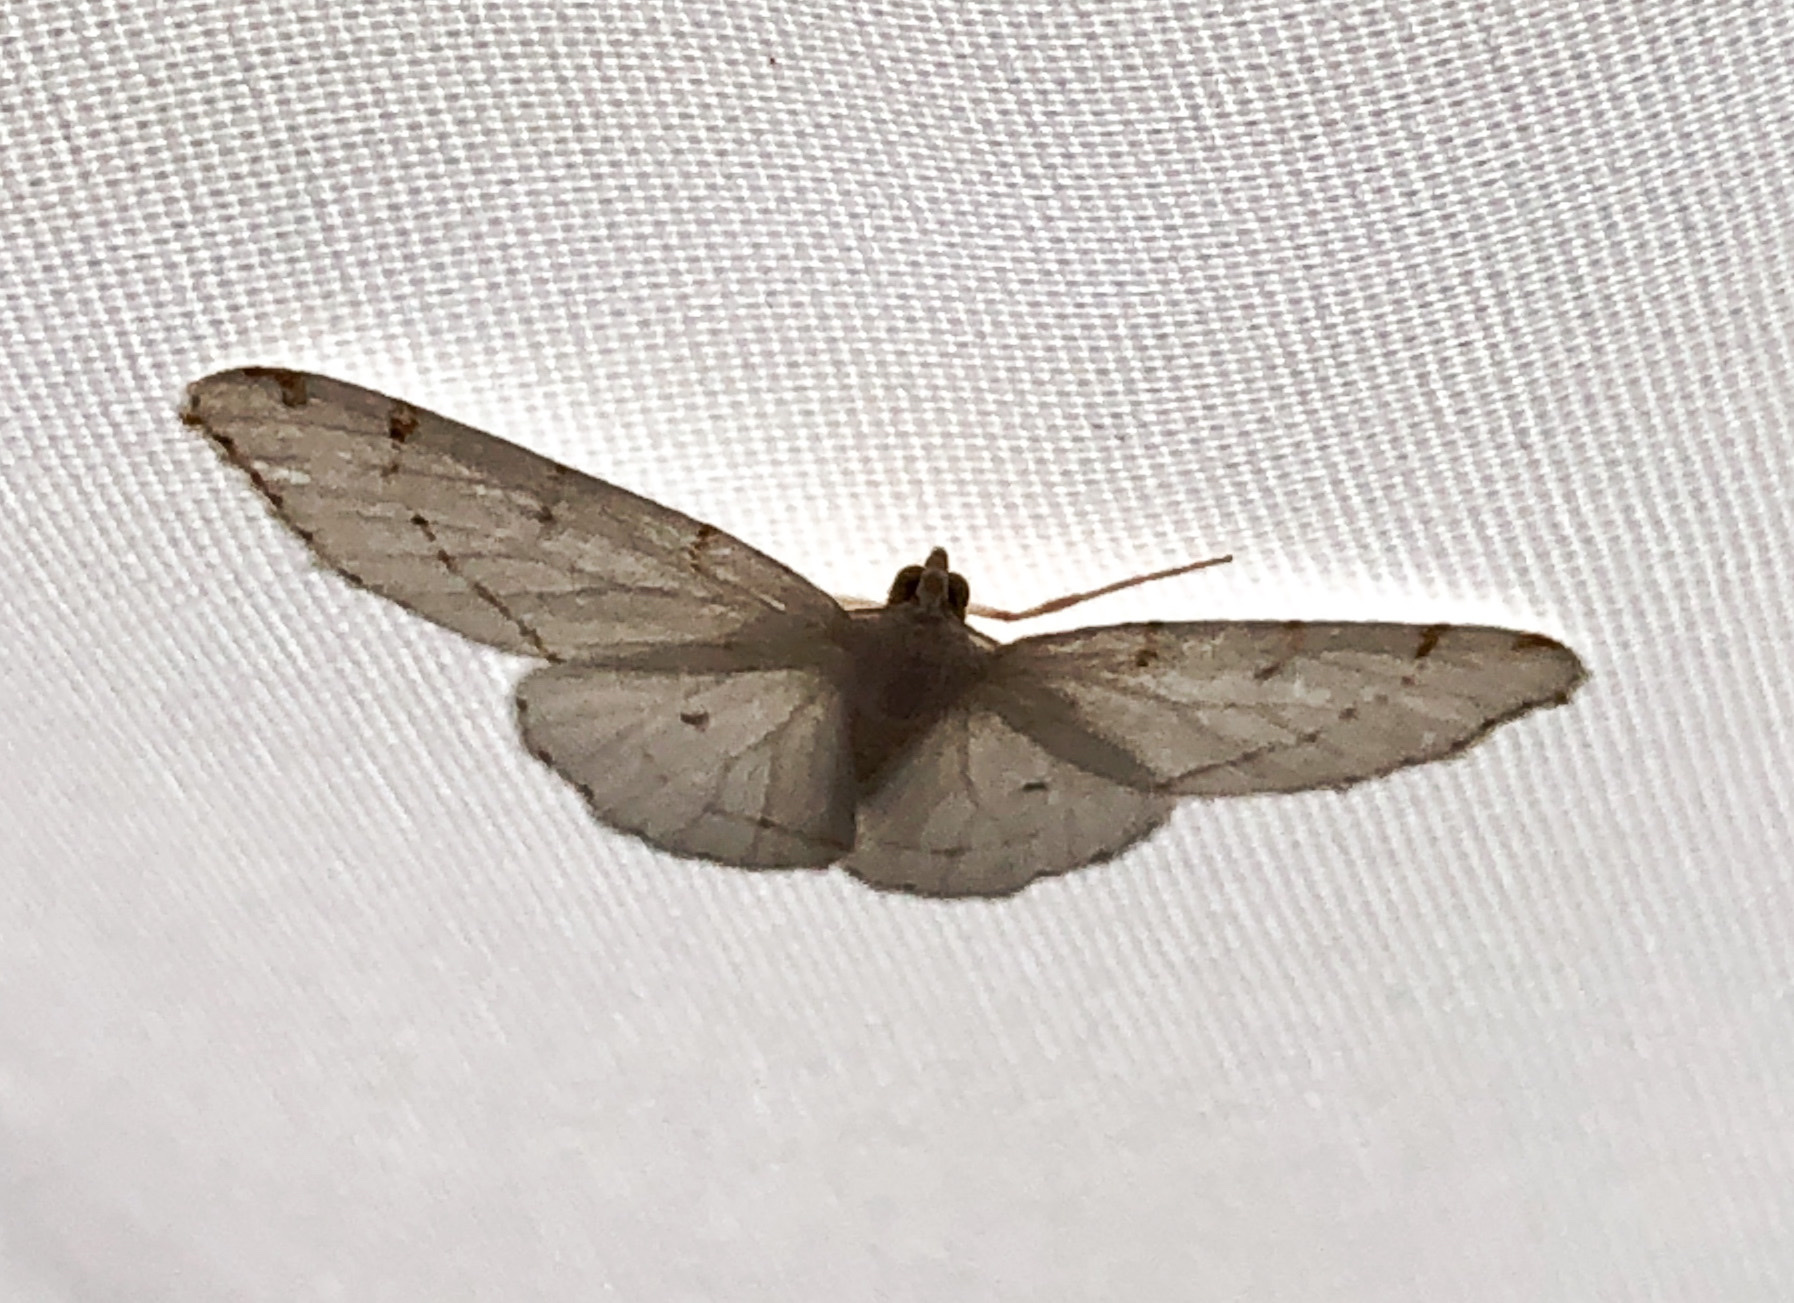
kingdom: Animalia
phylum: Arthropoda
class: Insecta
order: Lepidoptera
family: Geometridae
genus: Macaria
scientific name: Macaria pustularia
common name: Lesser maple spanworm moth
